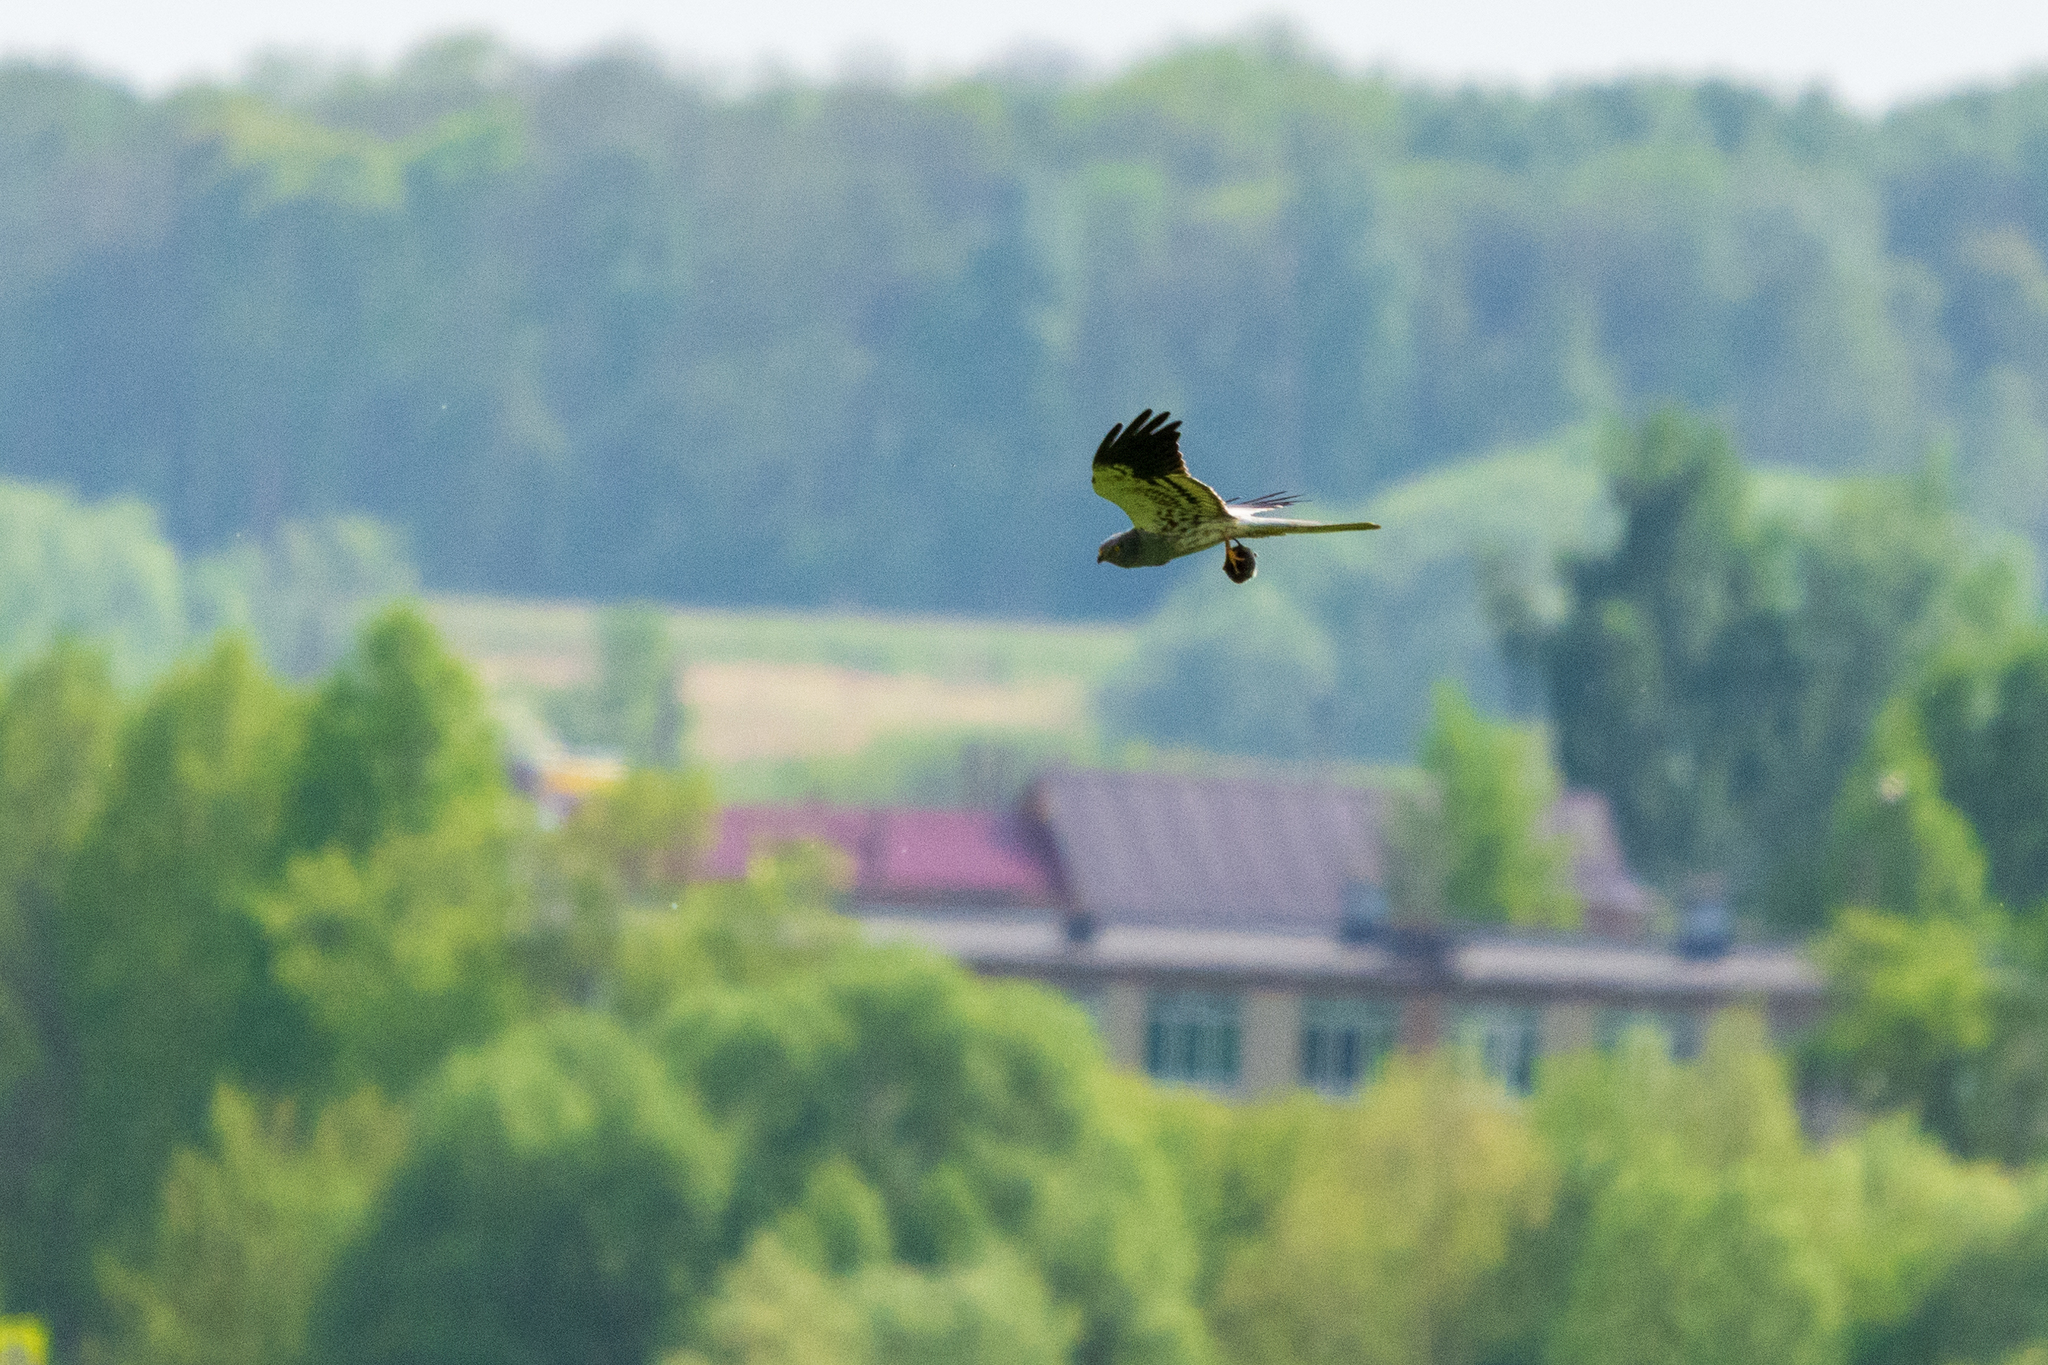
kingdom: Animalia
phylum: Chordata
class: Aves
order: Accipitriformes
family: Accipitridae
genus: Circus
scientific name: Circus pygargus
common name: Montagu's harrier
